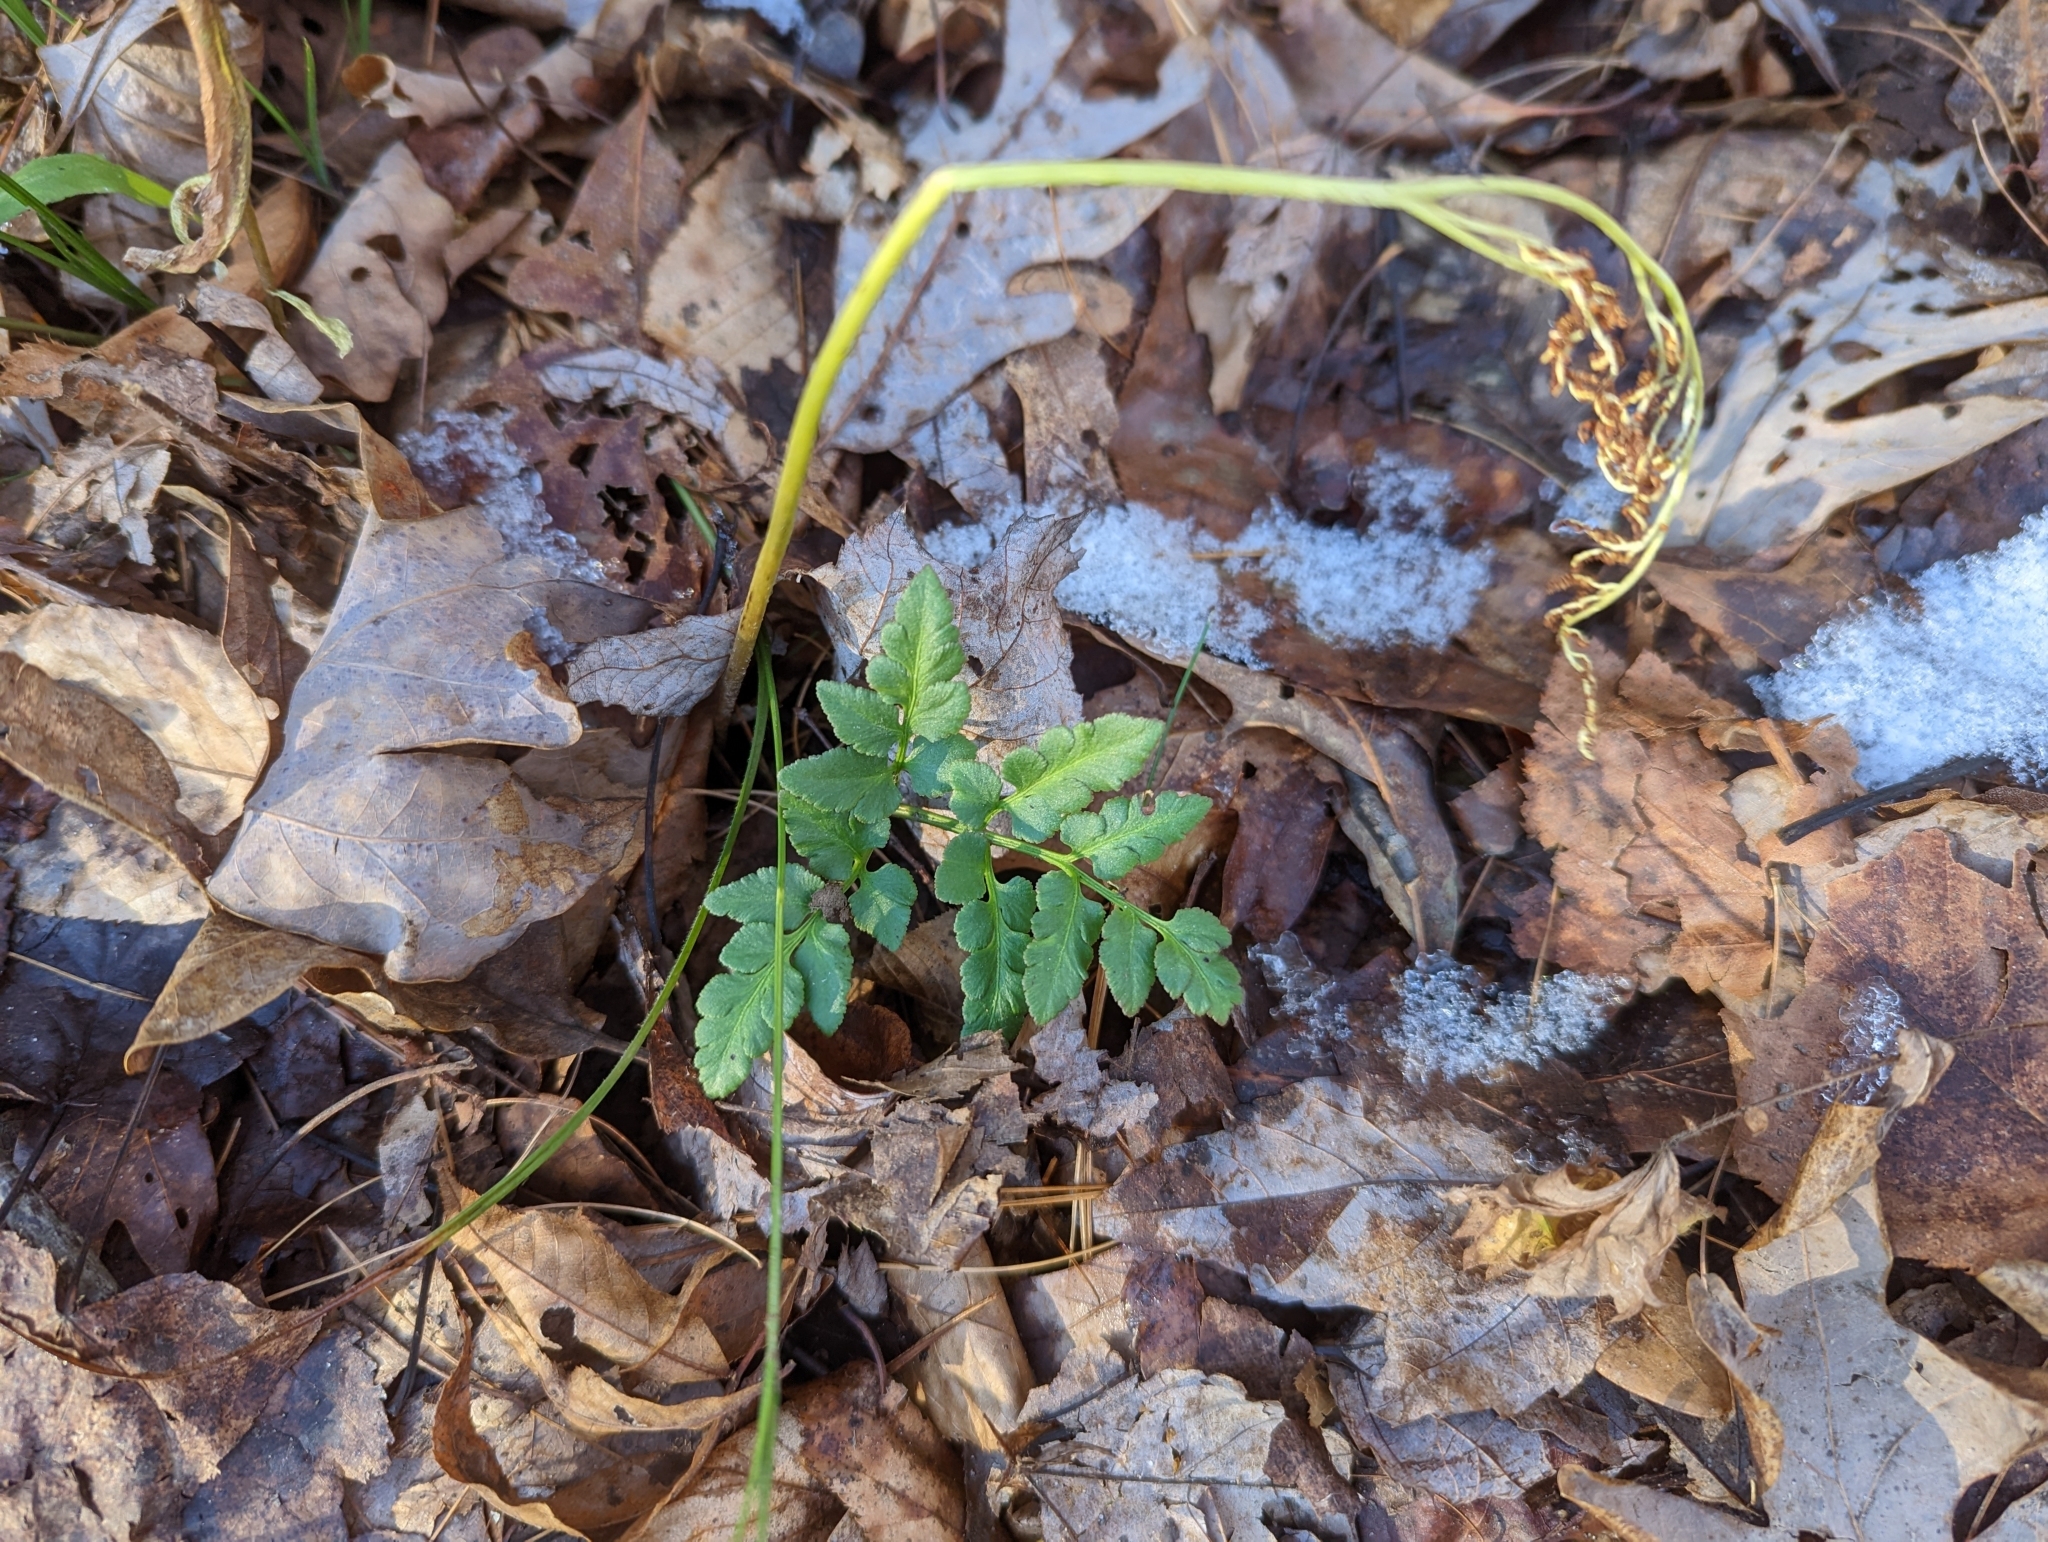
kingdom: Plantae
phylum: Tracheophyta
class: Polypodiopsida
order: Ophioglossales
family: Ophioglossaceae
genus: Sceptridium
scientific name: Sceptridium dissectum
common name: Cut-leaved grapefern
